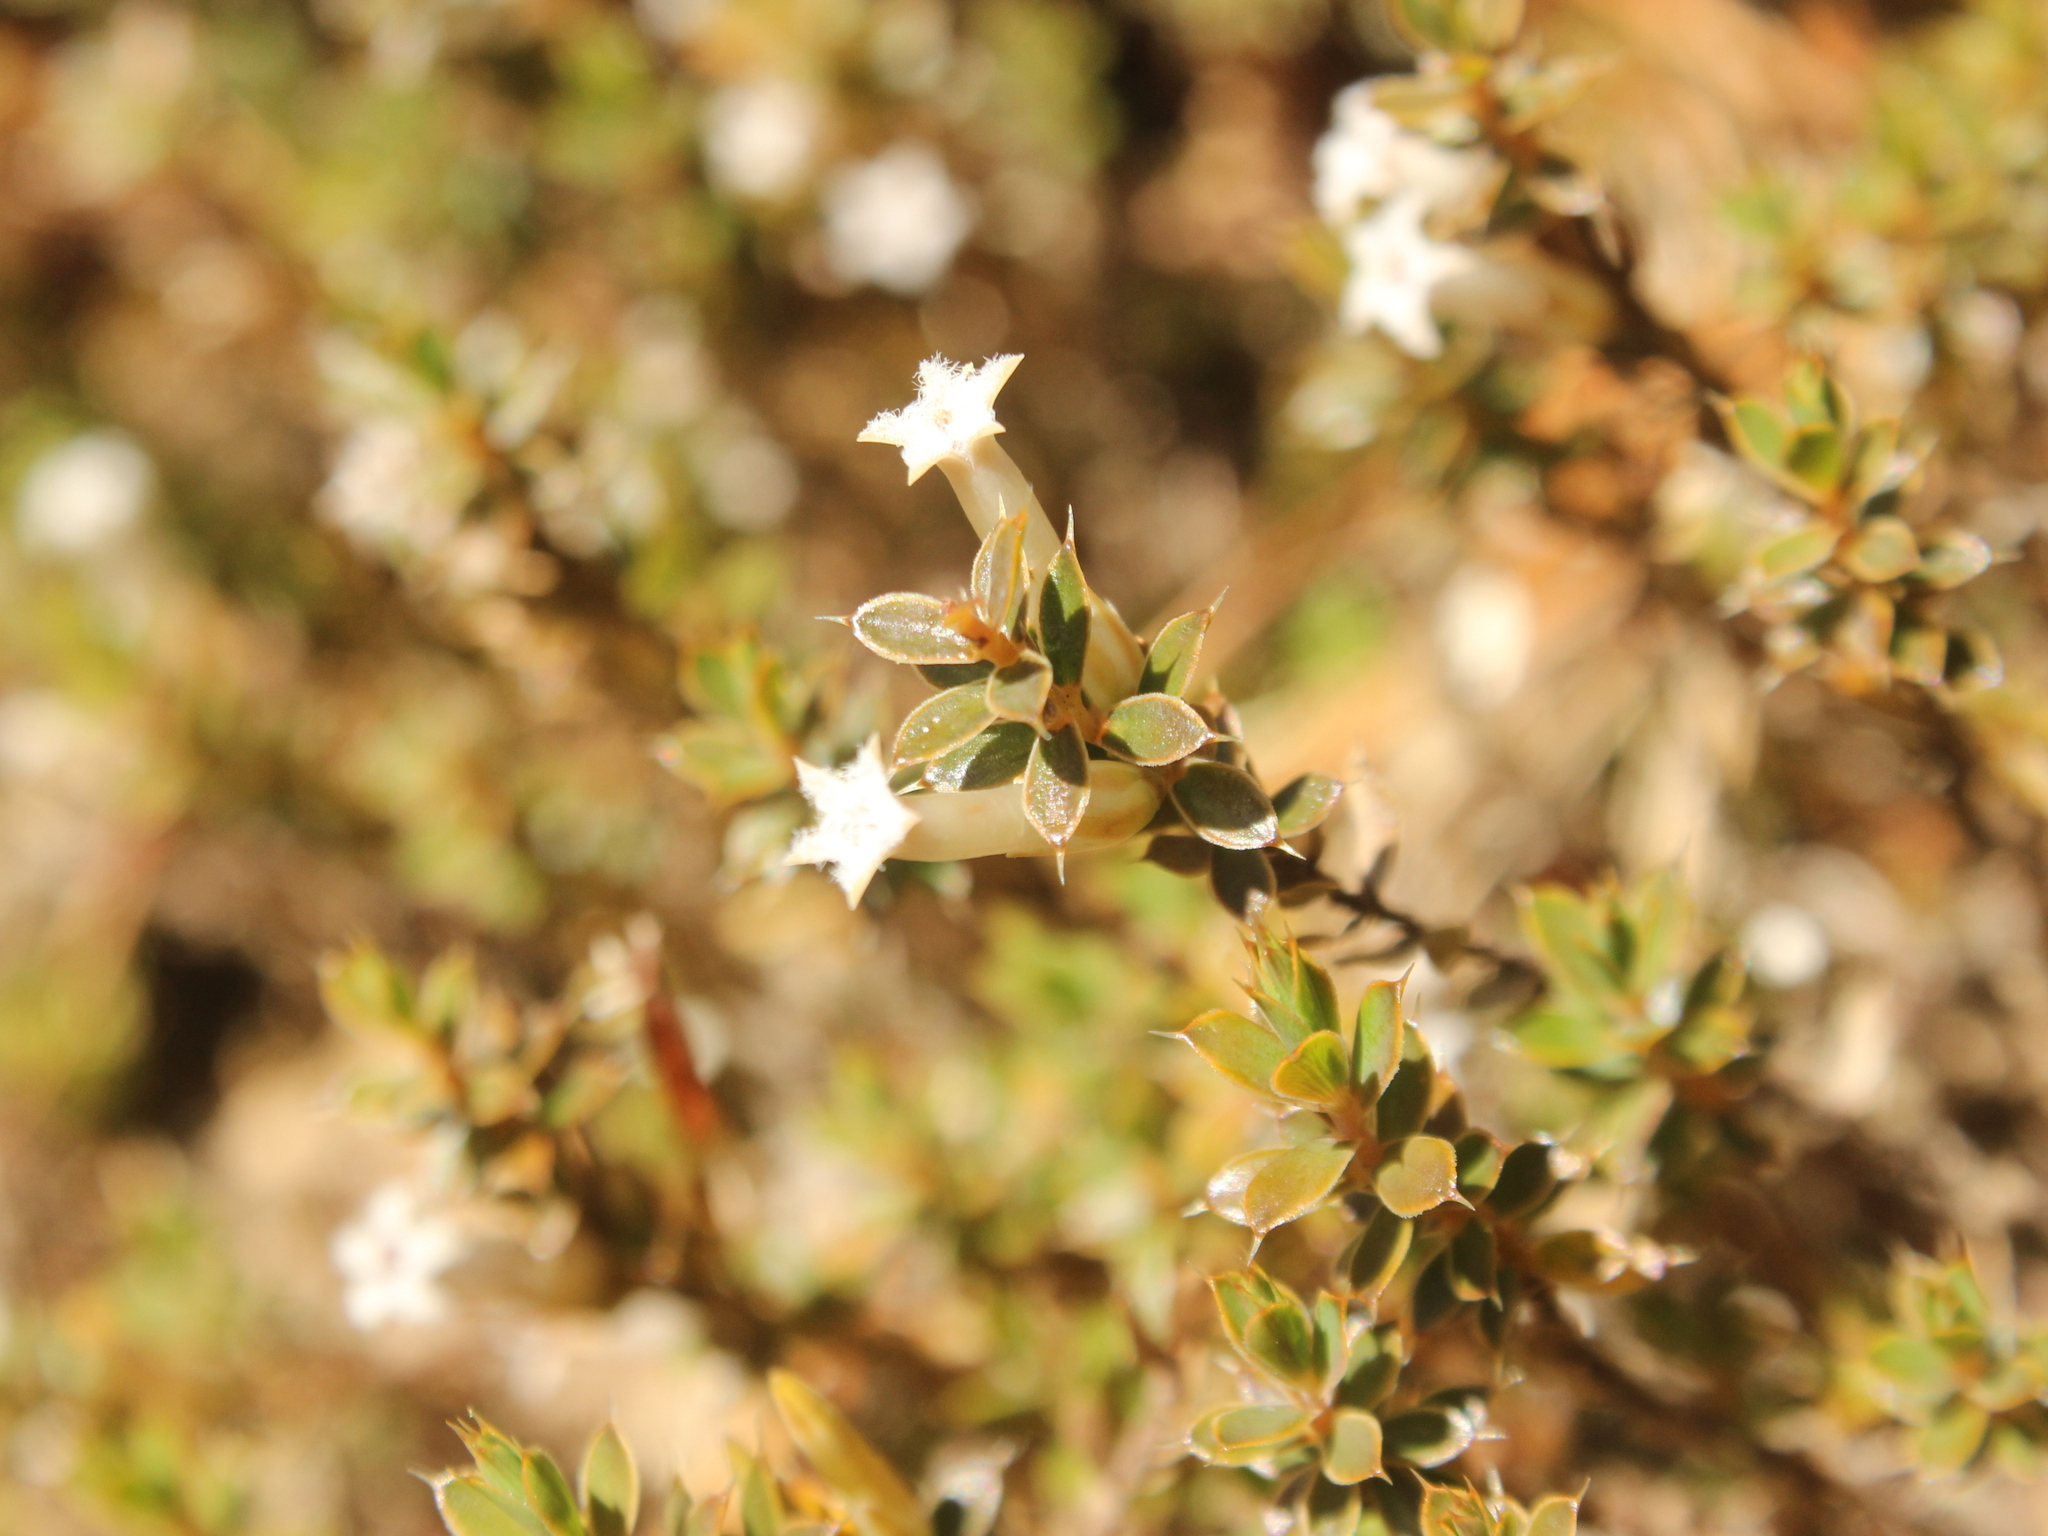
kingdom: Plantae
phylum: Tracheophyta
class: Magnoliopsida
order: Ericales
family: Ericaceae
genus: Styphelia
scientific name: Styphelia nesophila
